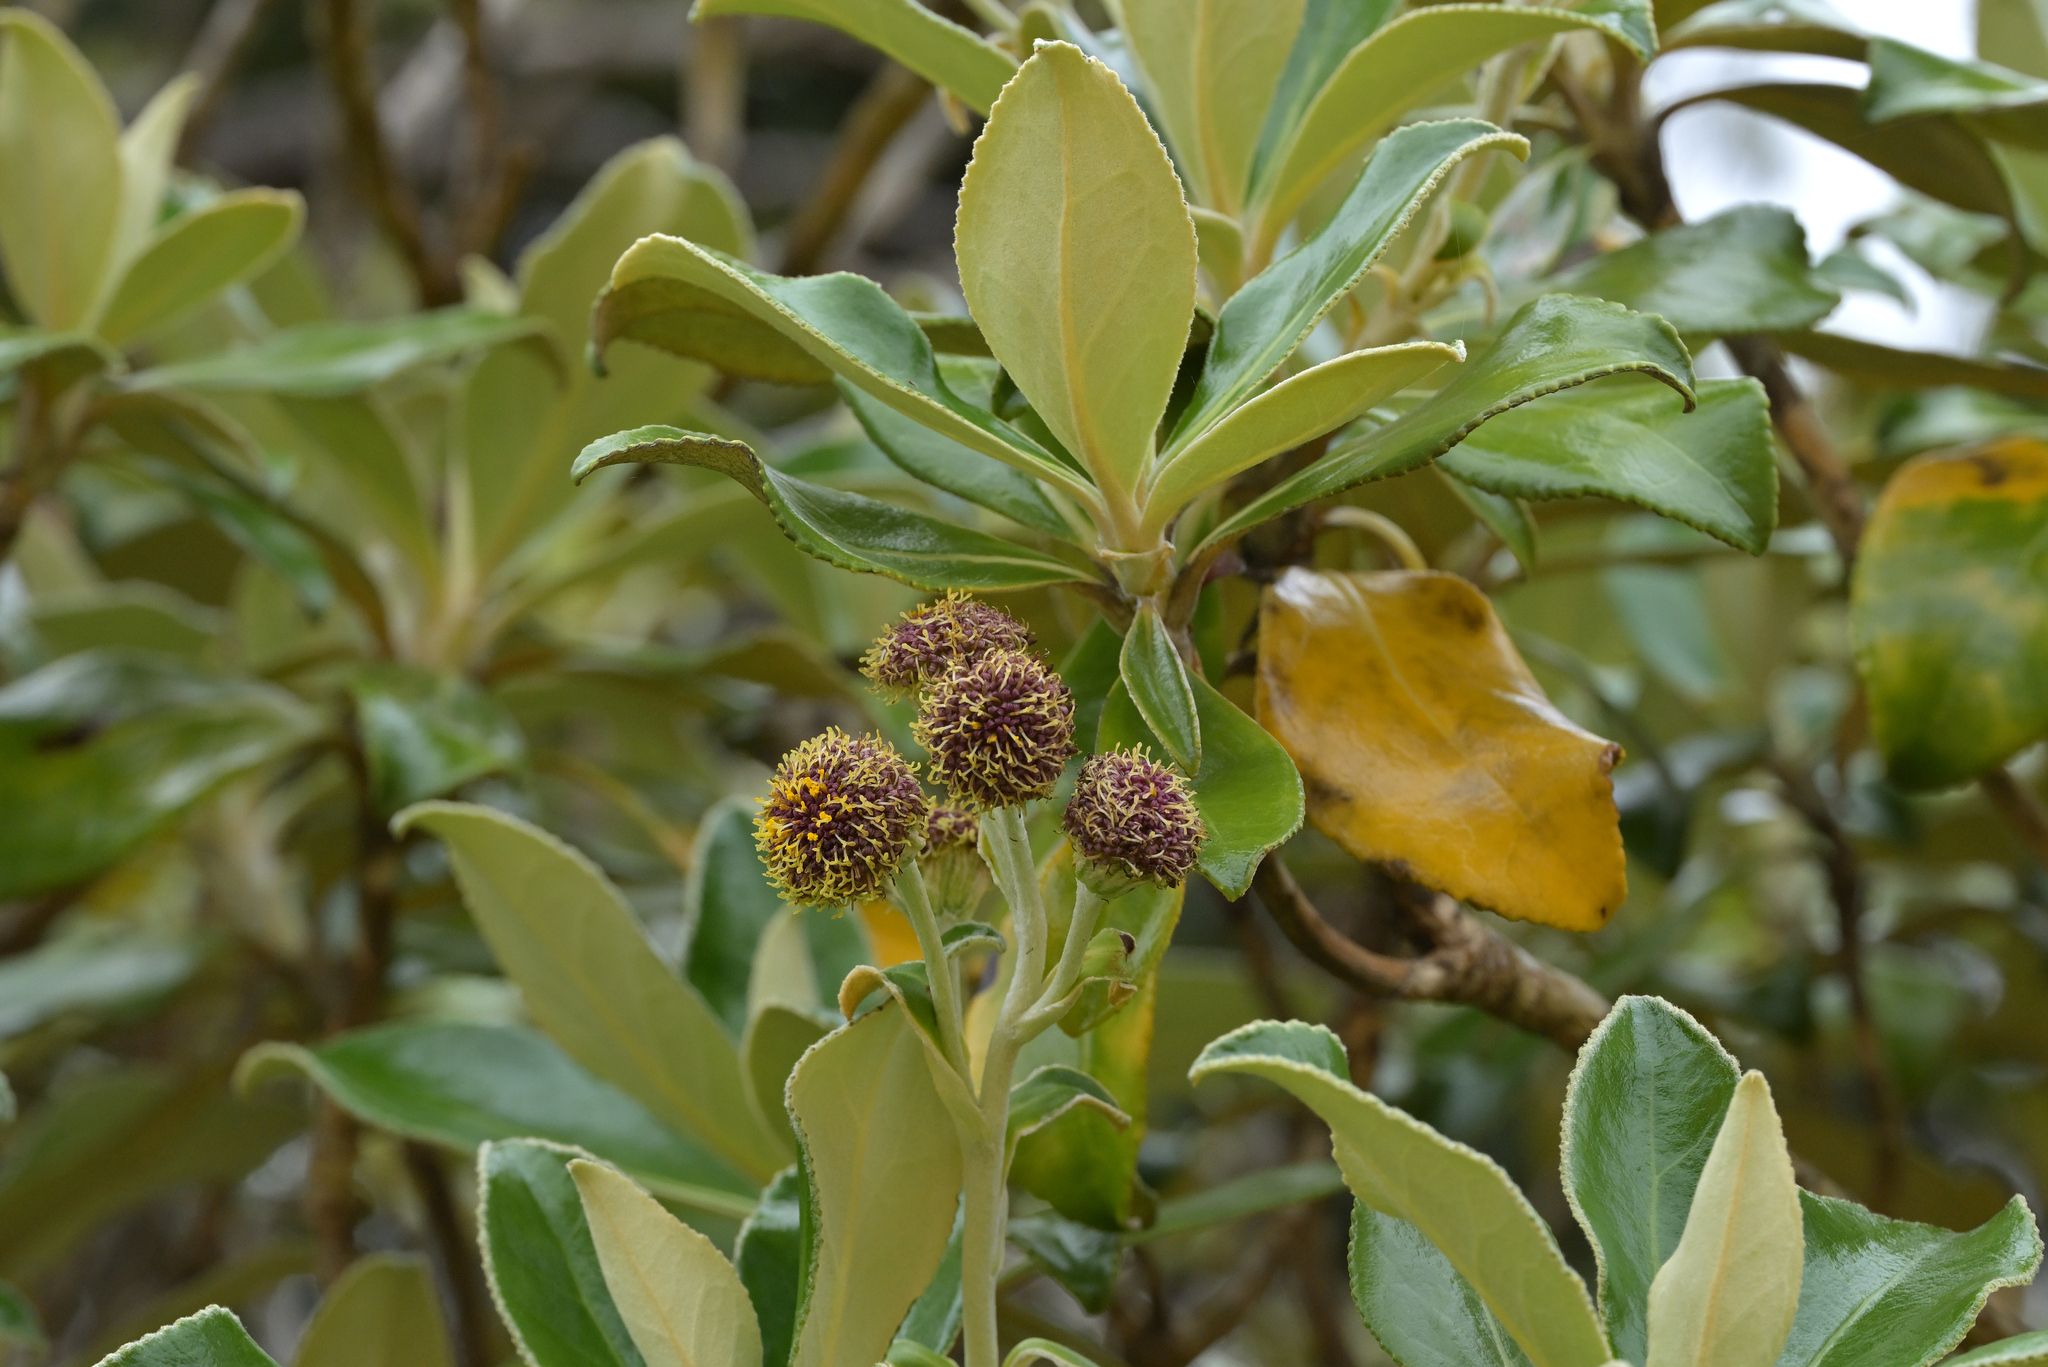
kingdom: Plantae
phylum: Tracheophyta
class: Magnoliopsida
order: Asterales
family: Asteraceae
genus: Macrolearia
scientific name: Macrolearia colensoi
